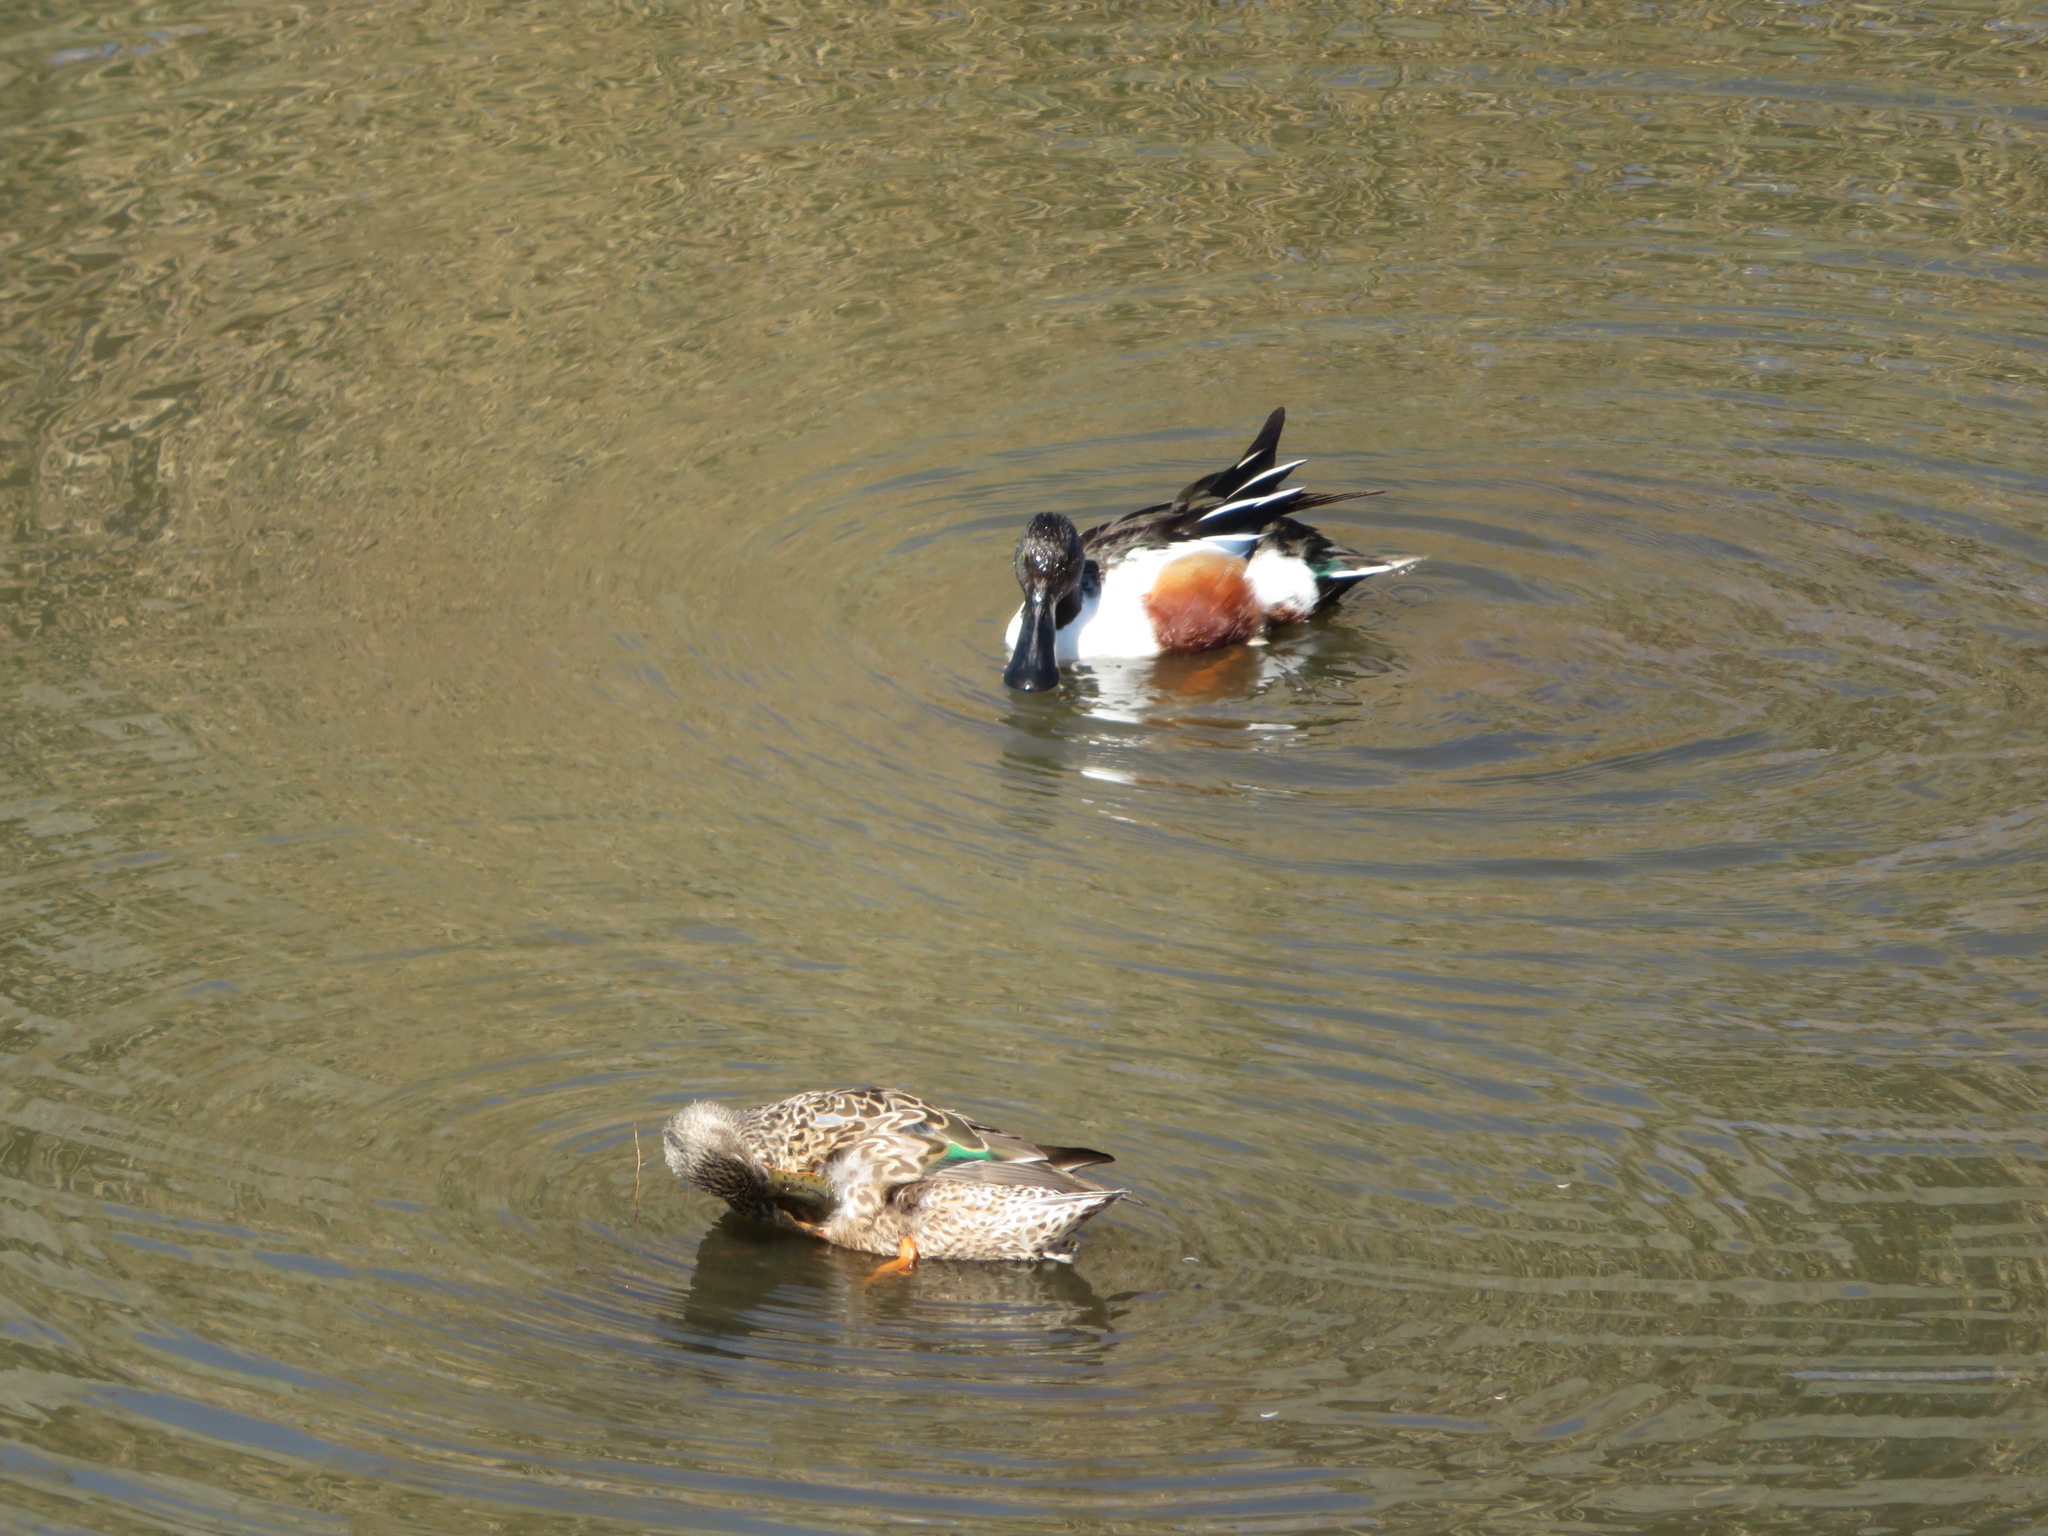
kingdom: Animalia
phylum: Chordata
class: Aves
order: Anseriformes
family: Anatidae
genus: Spatula
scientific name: Spatula clypeata
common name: Northern shoveler
